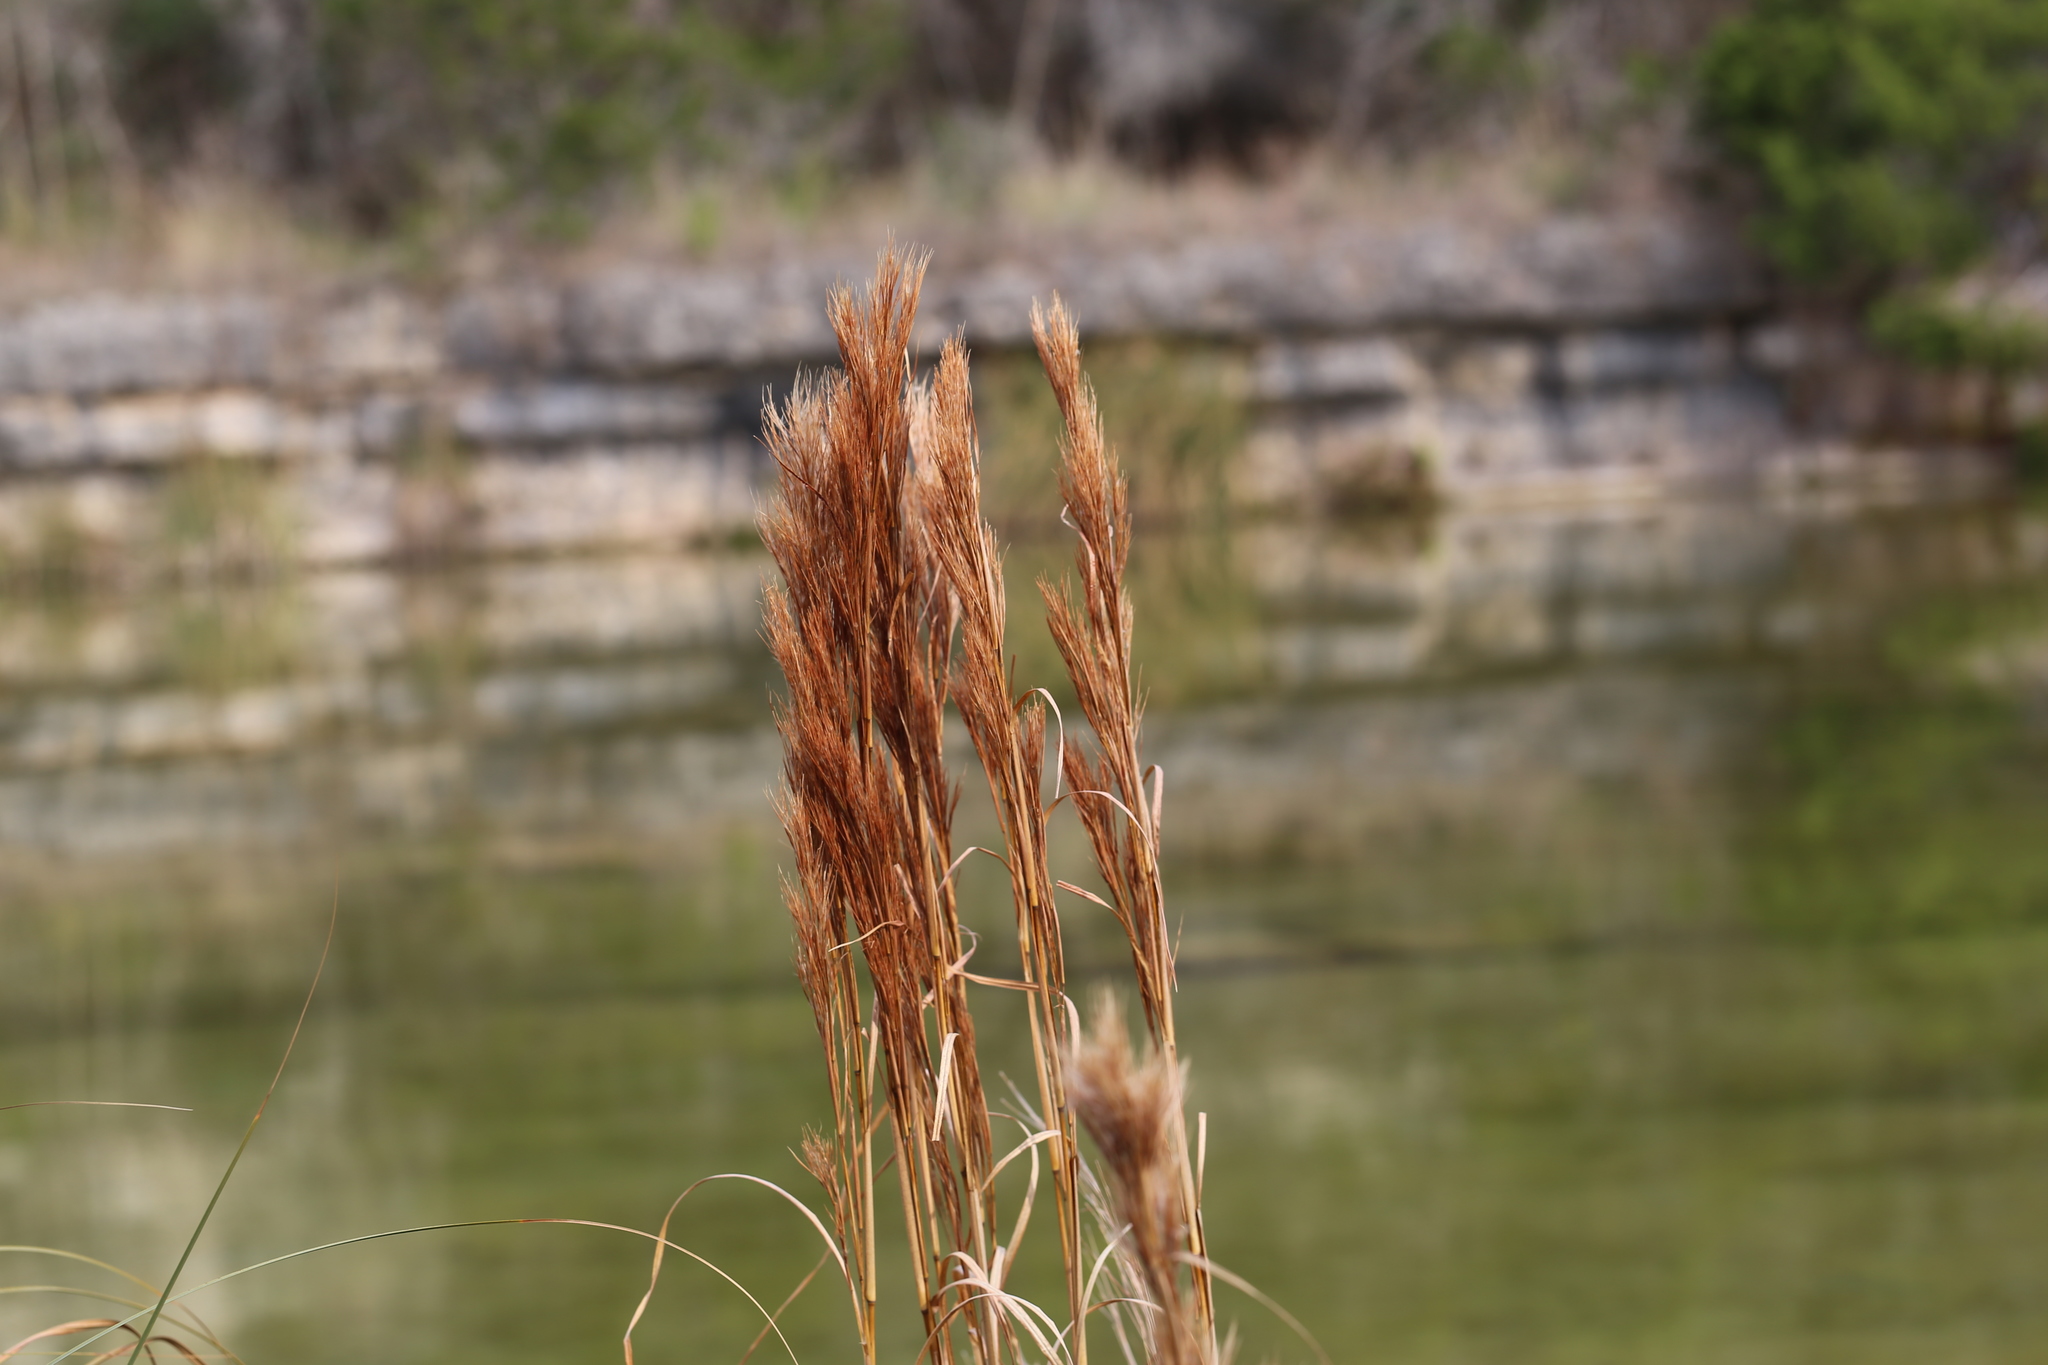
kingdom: Plantae
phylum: Tracheophyta
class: Liliopsida
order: Poales
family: Poaceae
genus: Andropogon
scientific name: Andropogon tenuispatheus
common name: Bushy bluestem
